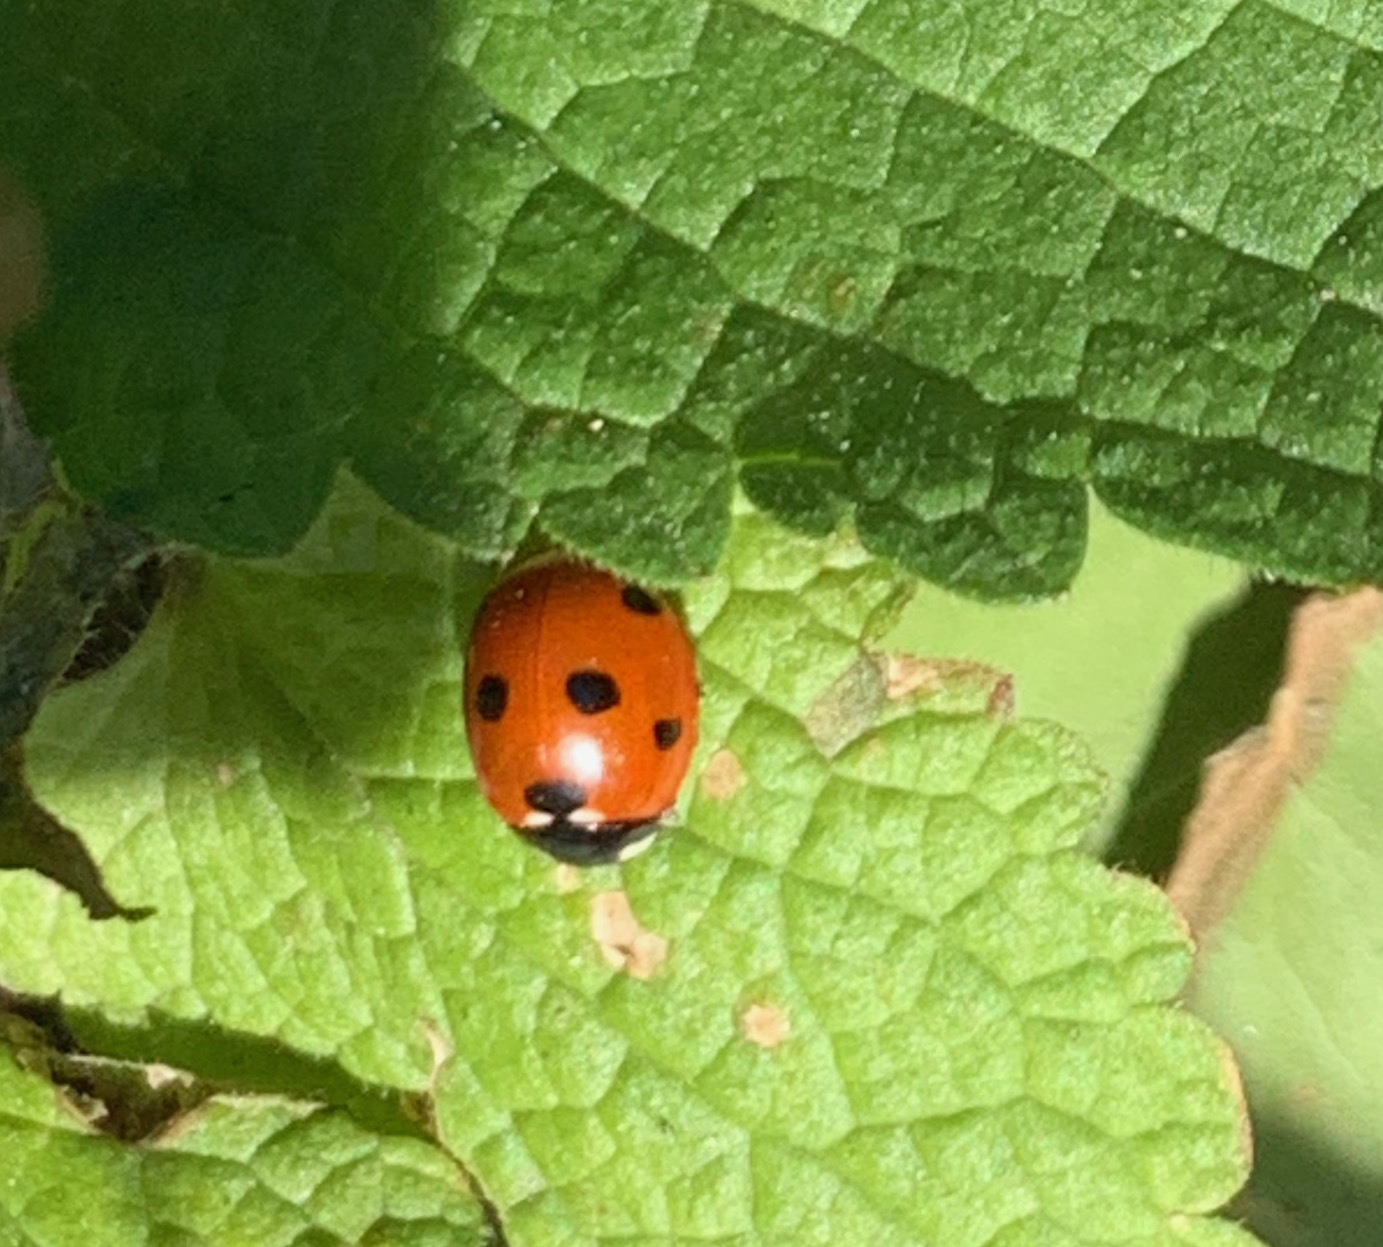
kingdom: Animalia
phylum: Arthropoda
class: Insecta
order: Coleoptera
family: Coccinellidae
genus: Coccinella
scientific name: Coccinella septempunctata
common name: Sevenspotted lady beetle
